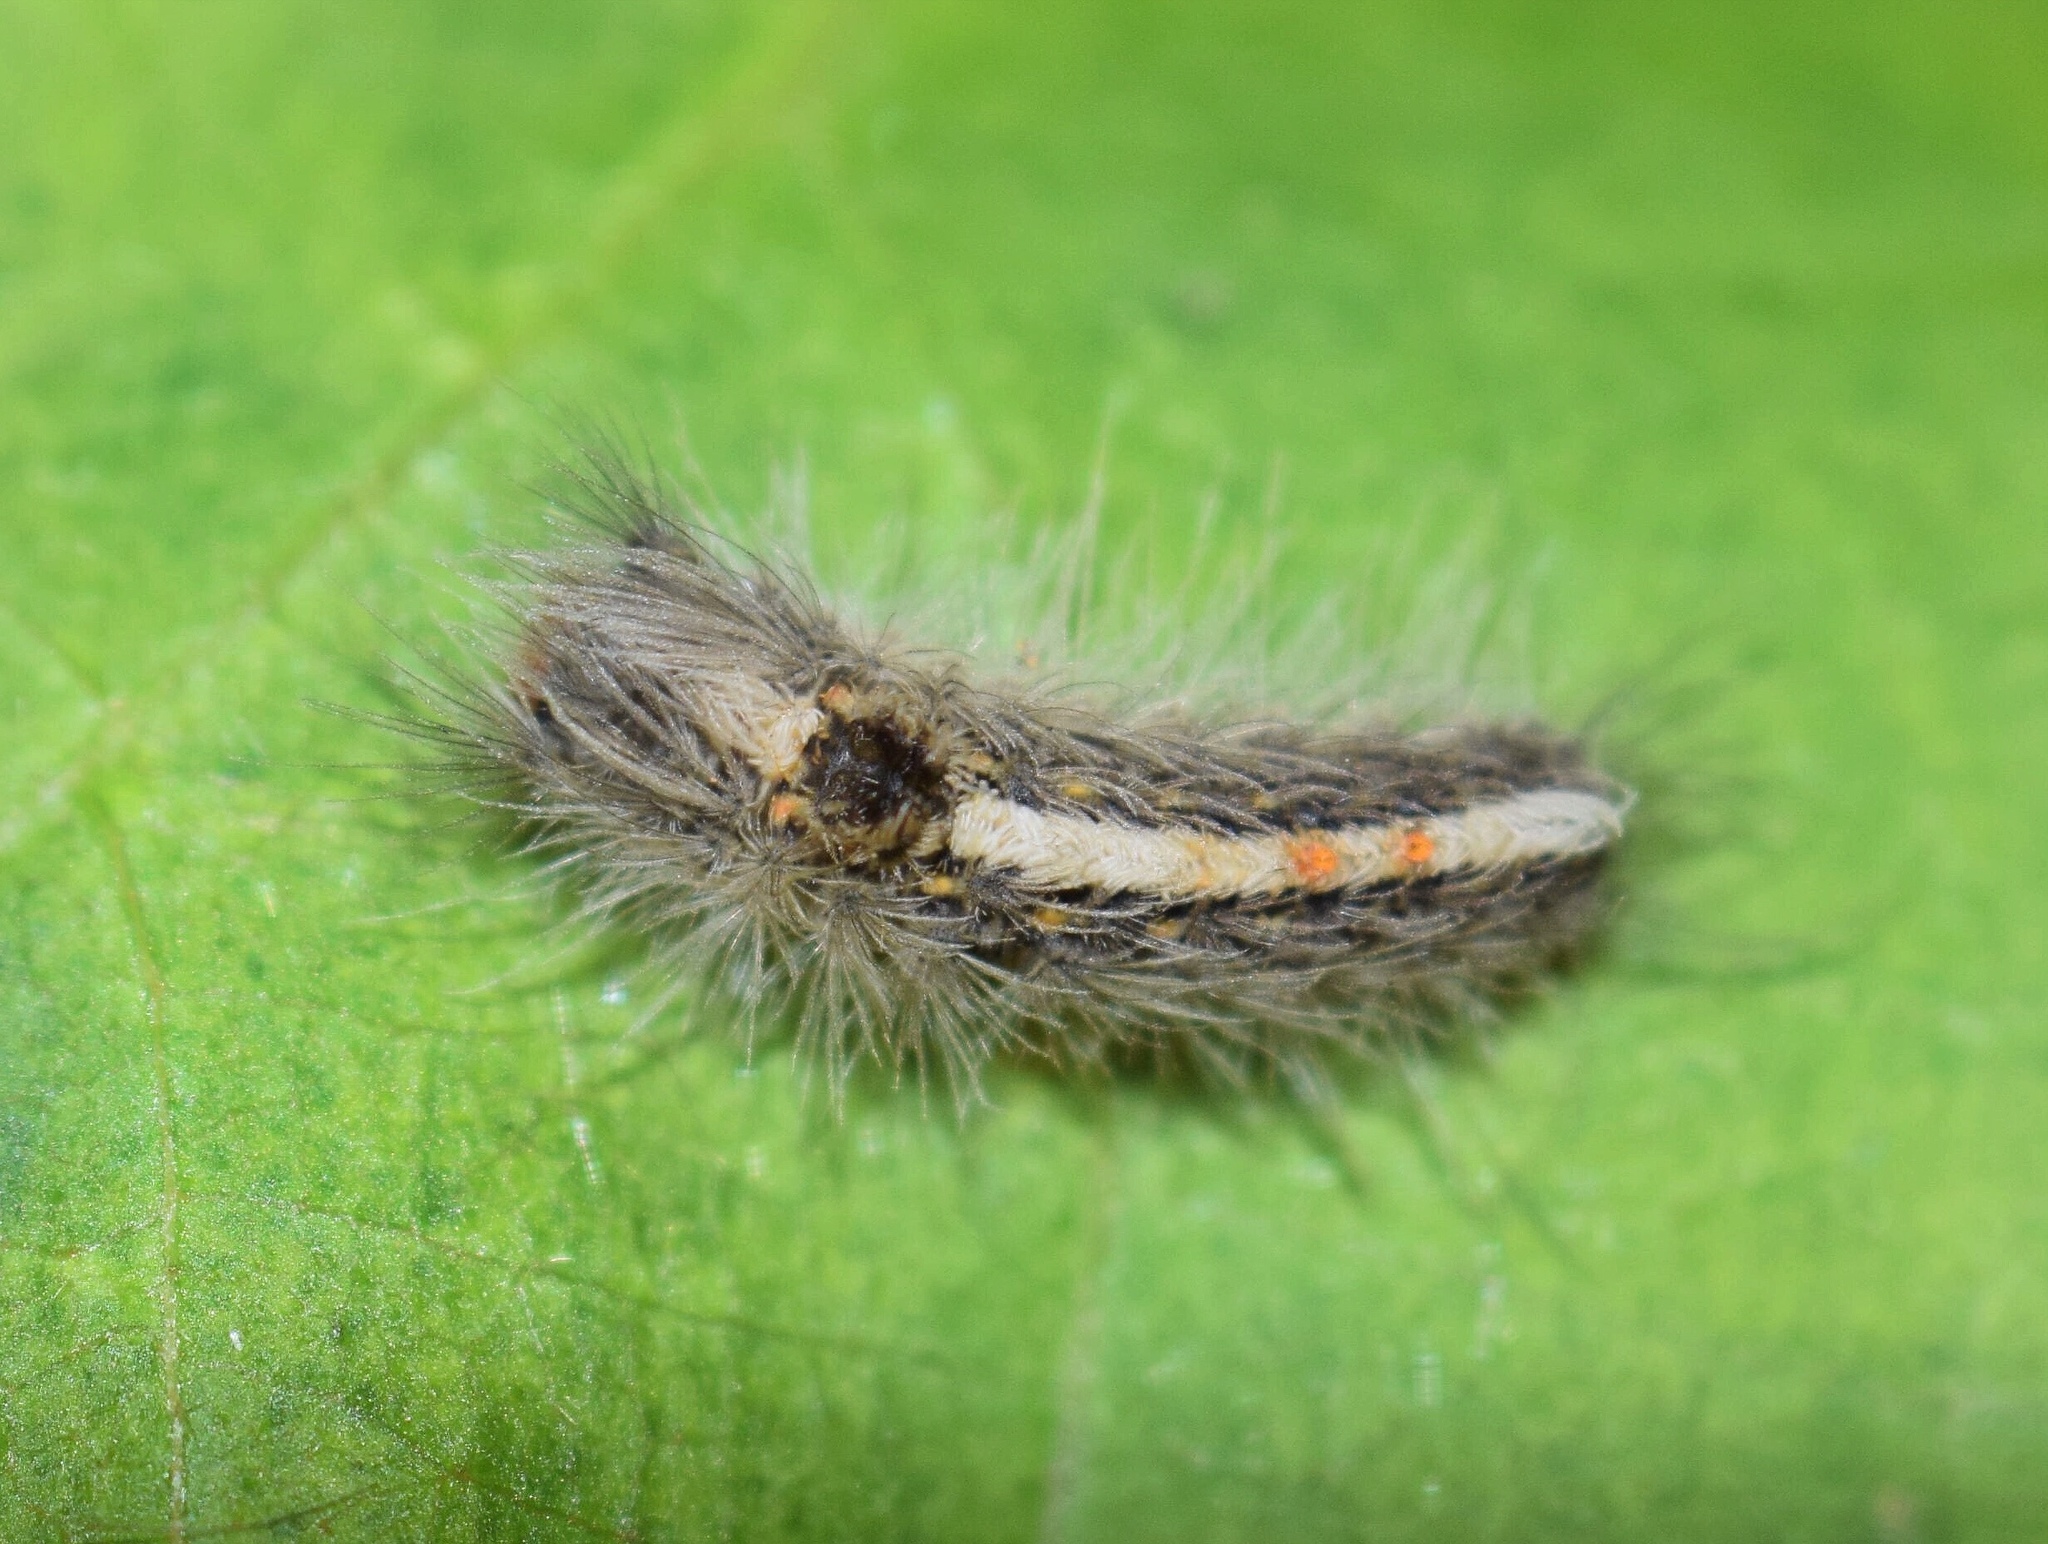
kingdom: Animalia
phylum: Arthropoda
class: Insecta
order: Lepidoptera
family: Erebidae
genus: Euproctis
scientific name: Euproctis punctifera
